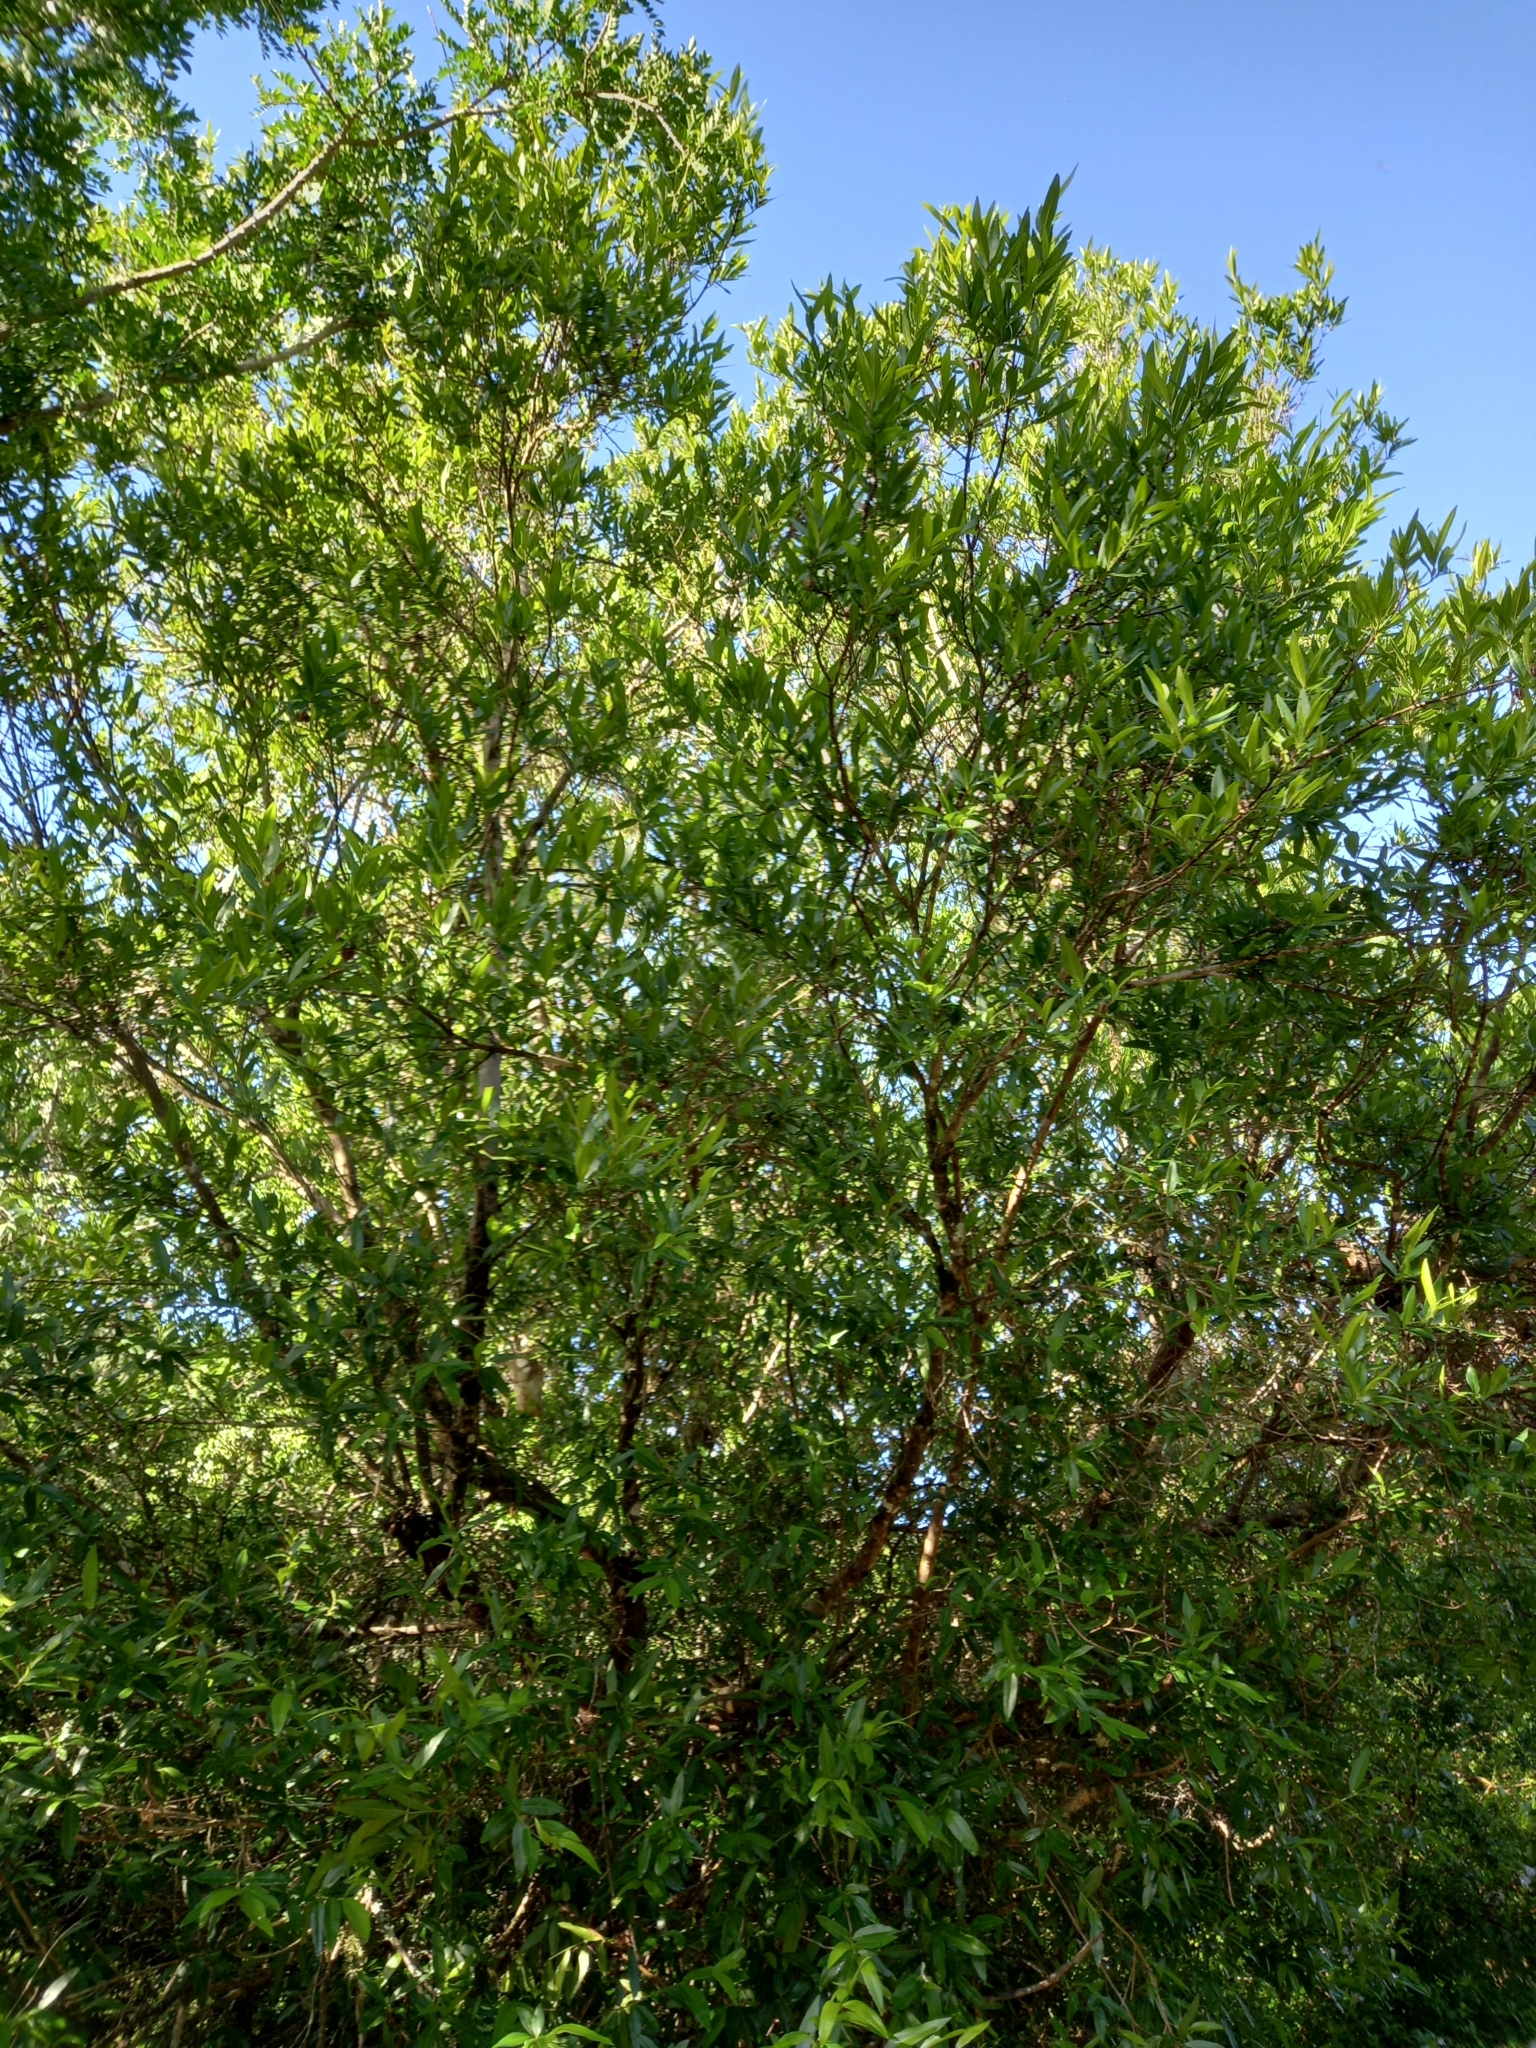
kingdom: Plantae
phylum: Tracheophyta
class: Magnoliopsida
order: Myrtales
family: Combretaceae
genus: Combretum
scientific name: Combretum caffrum
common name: Cape bushwillow
